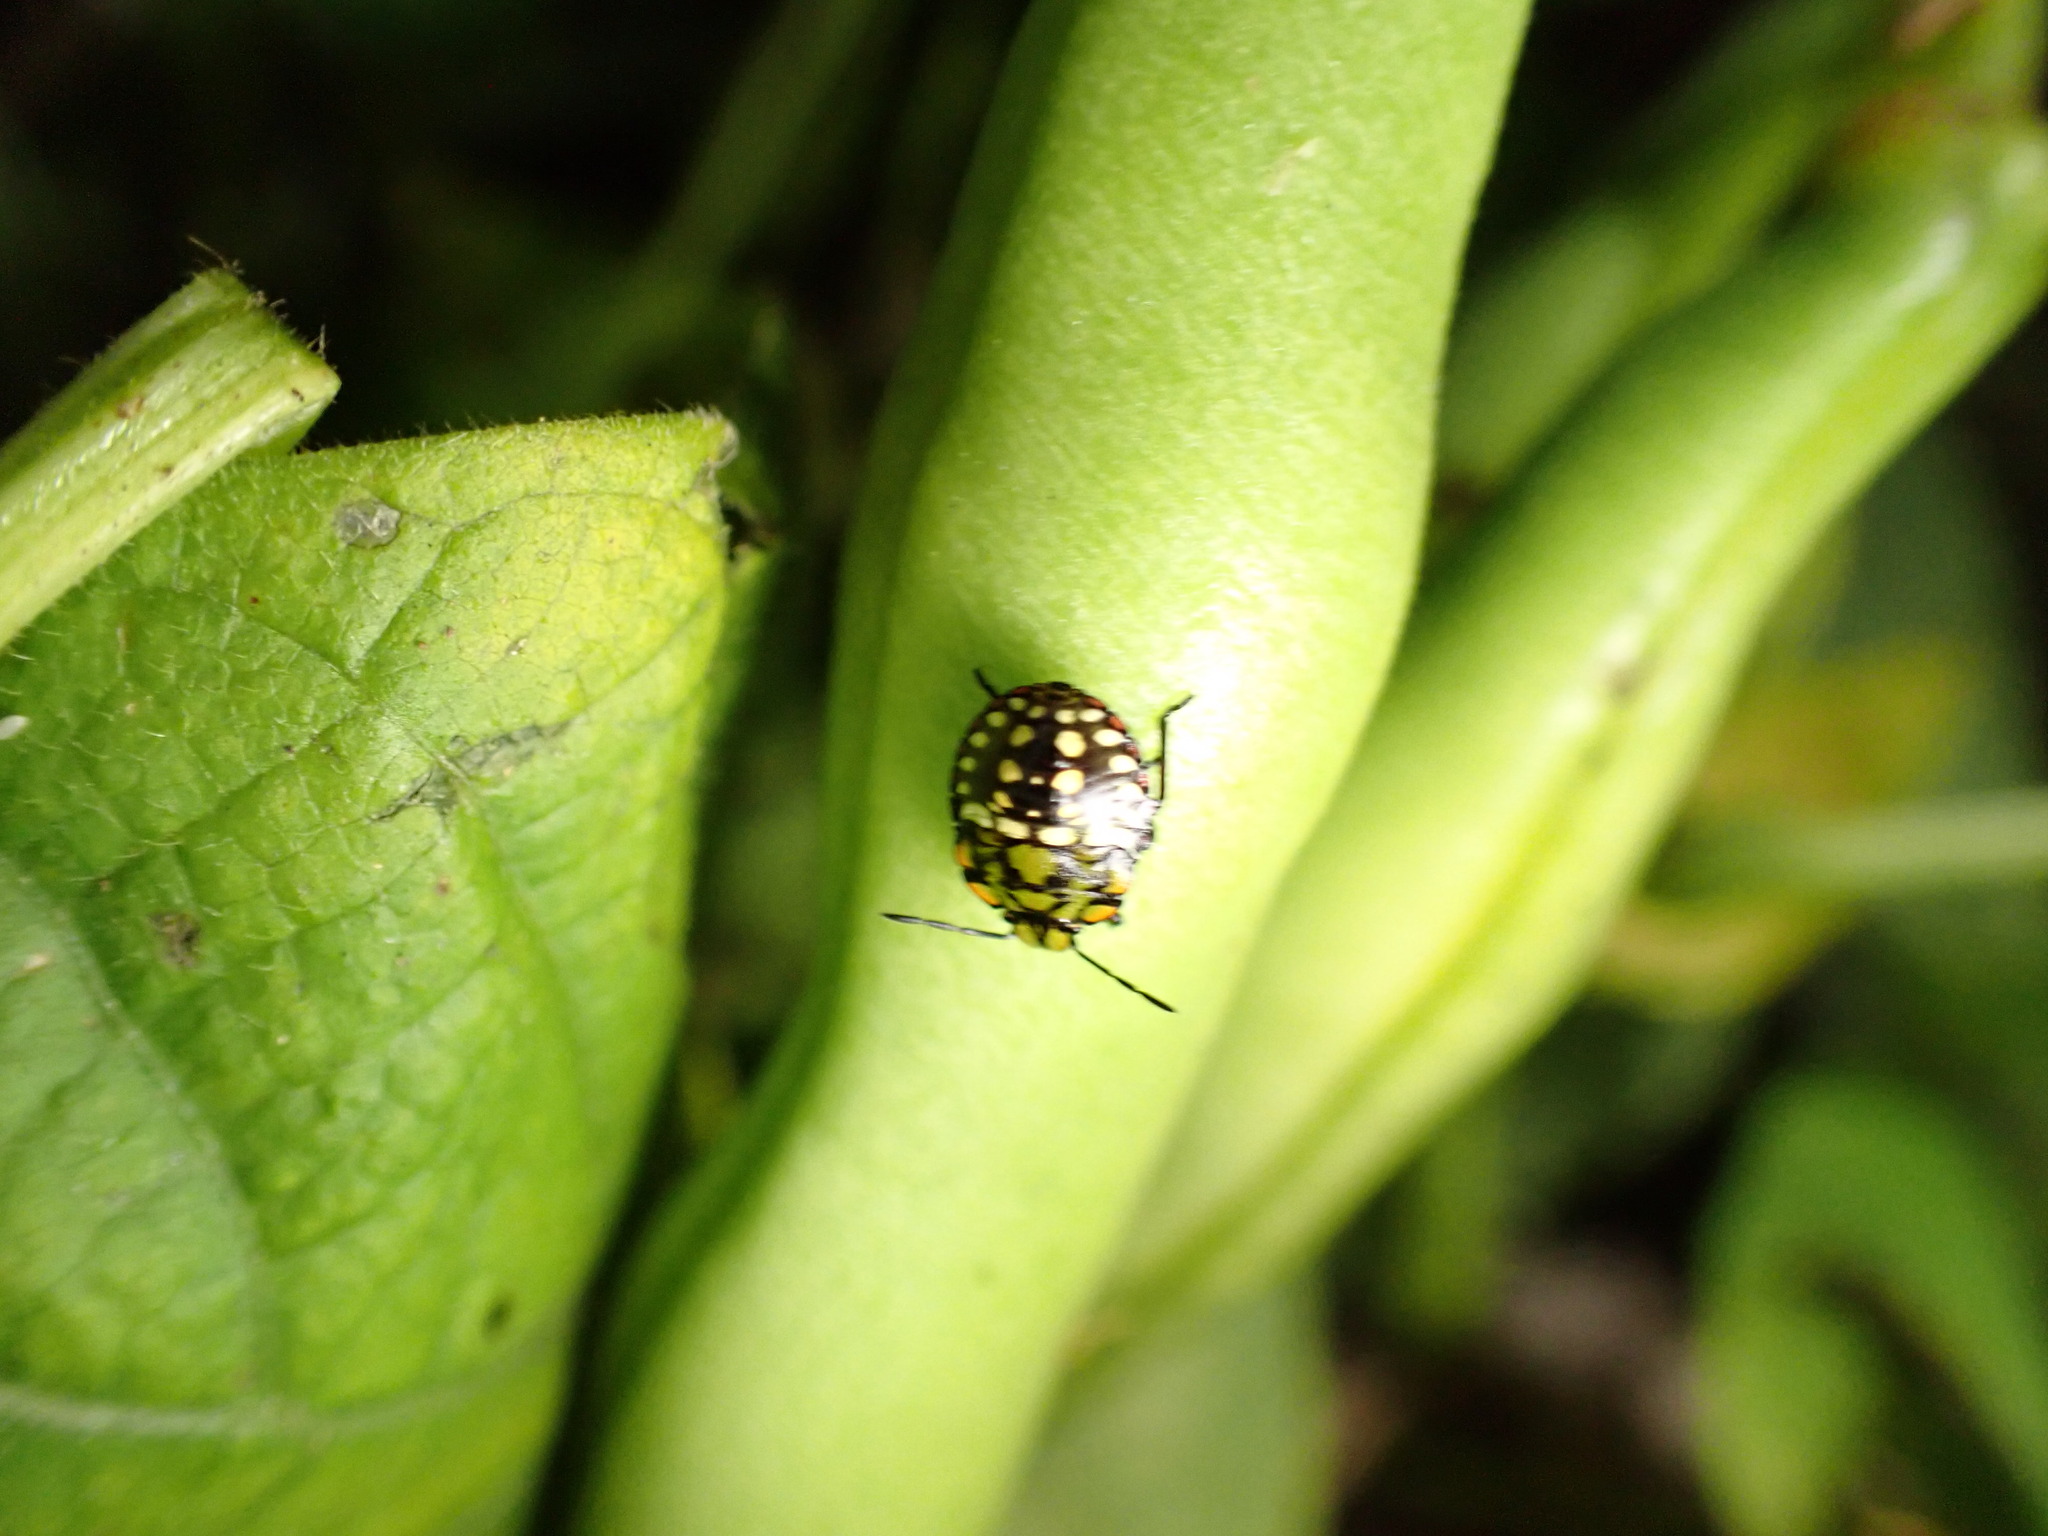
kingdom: Animalia
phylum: Arthropoda
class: Insecta
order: Hemiptera
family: Pentatomidae
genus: Nezara
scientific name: Nezara viridula
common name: Southern green stink bug
